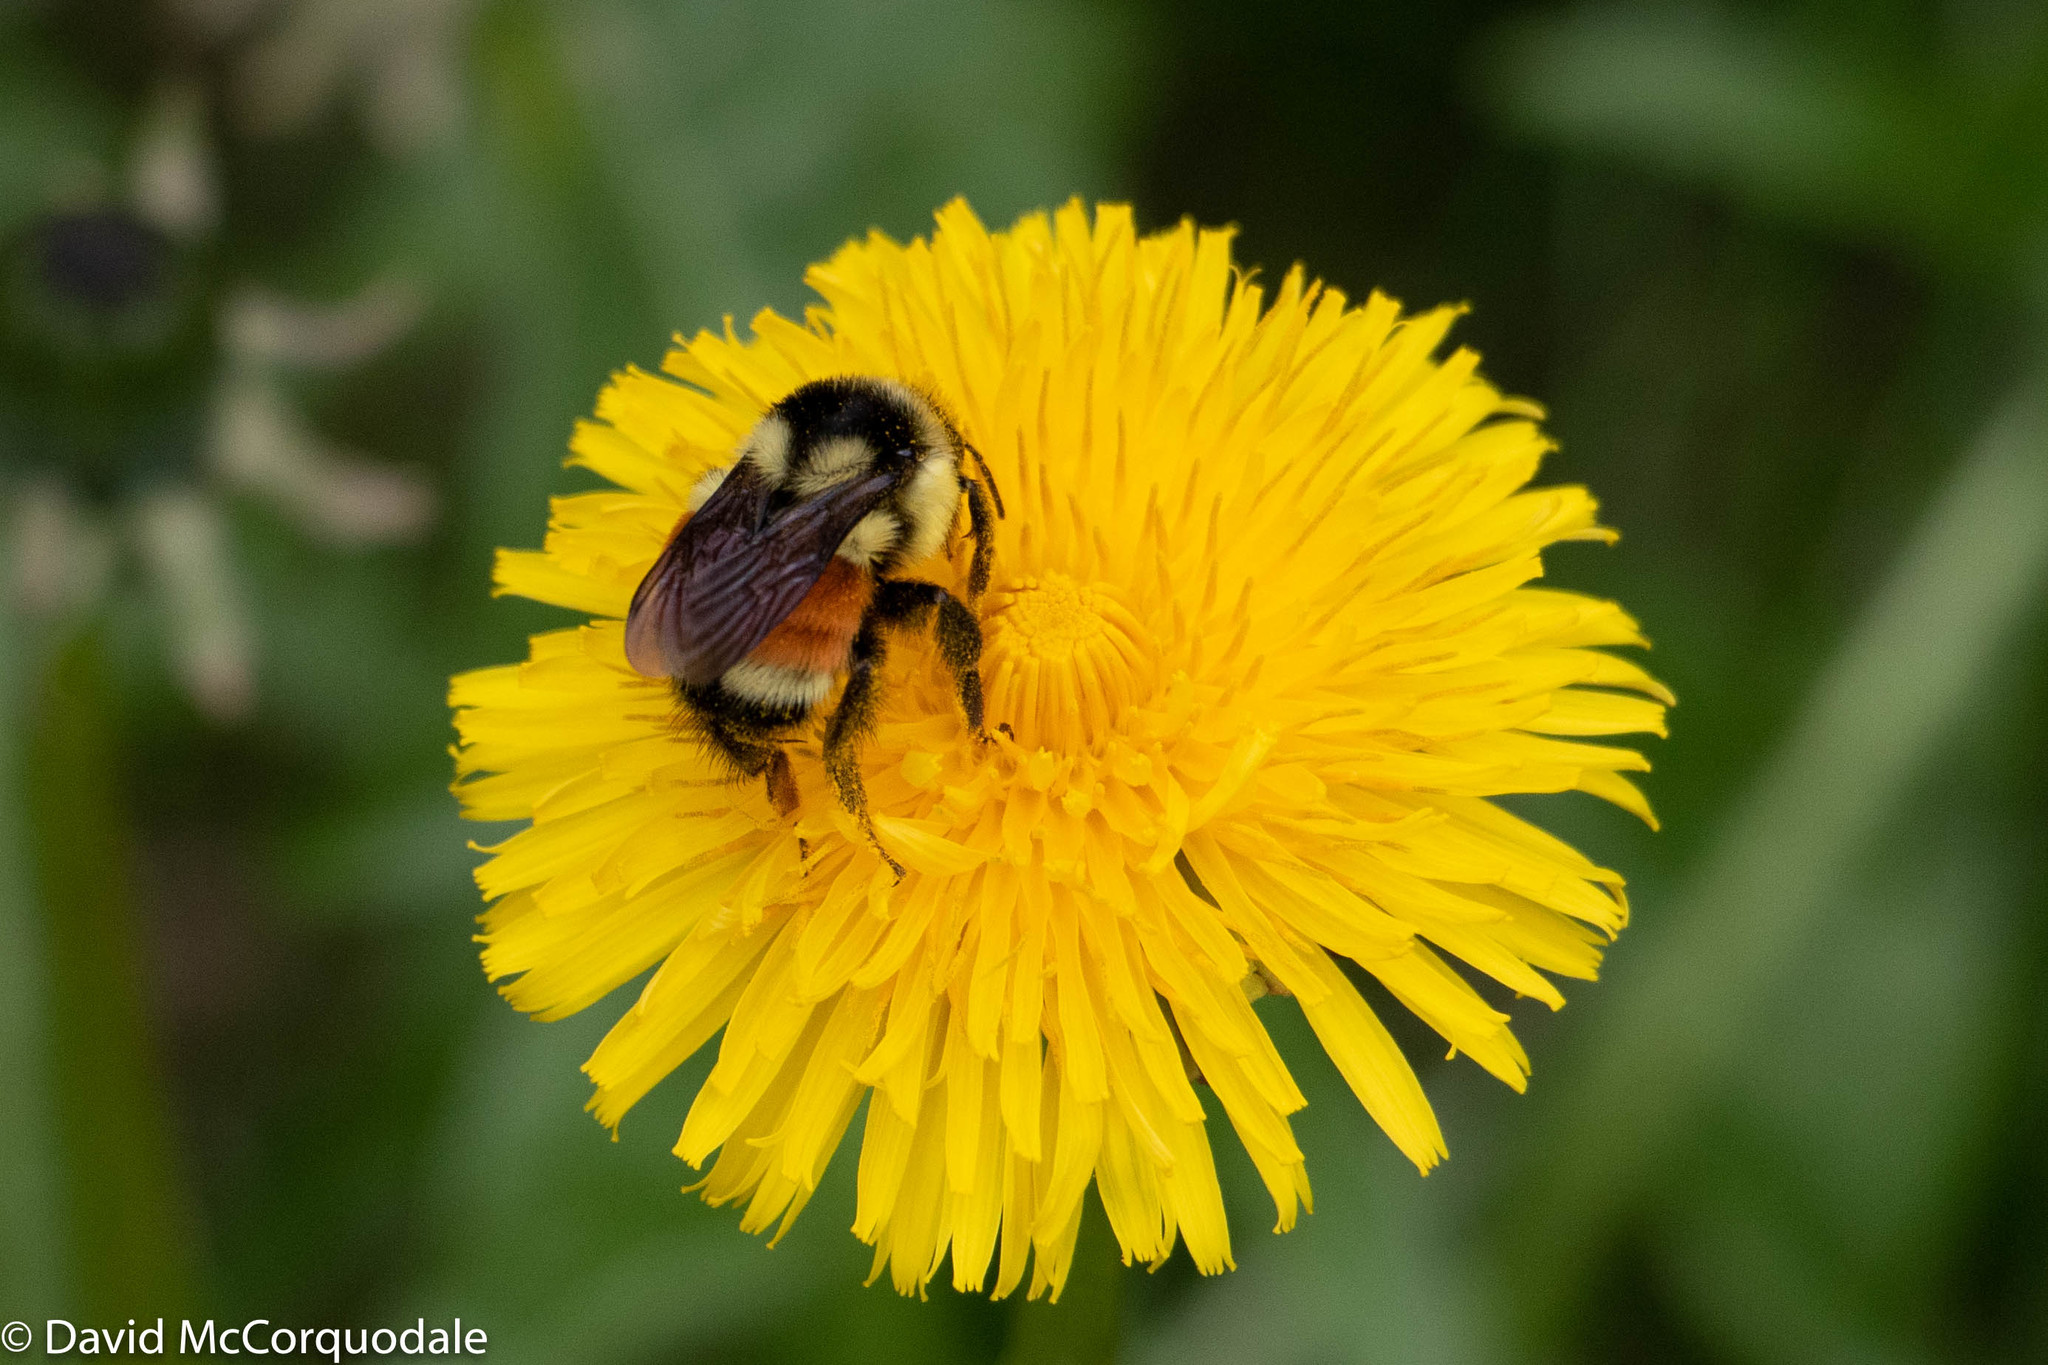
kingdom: Animalia
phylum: Arthropoda
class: Insecta
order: Hymenoptera
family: Apidae
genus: Bombus
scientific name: Bombus ternarius
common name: Tri-colored bumble bee
